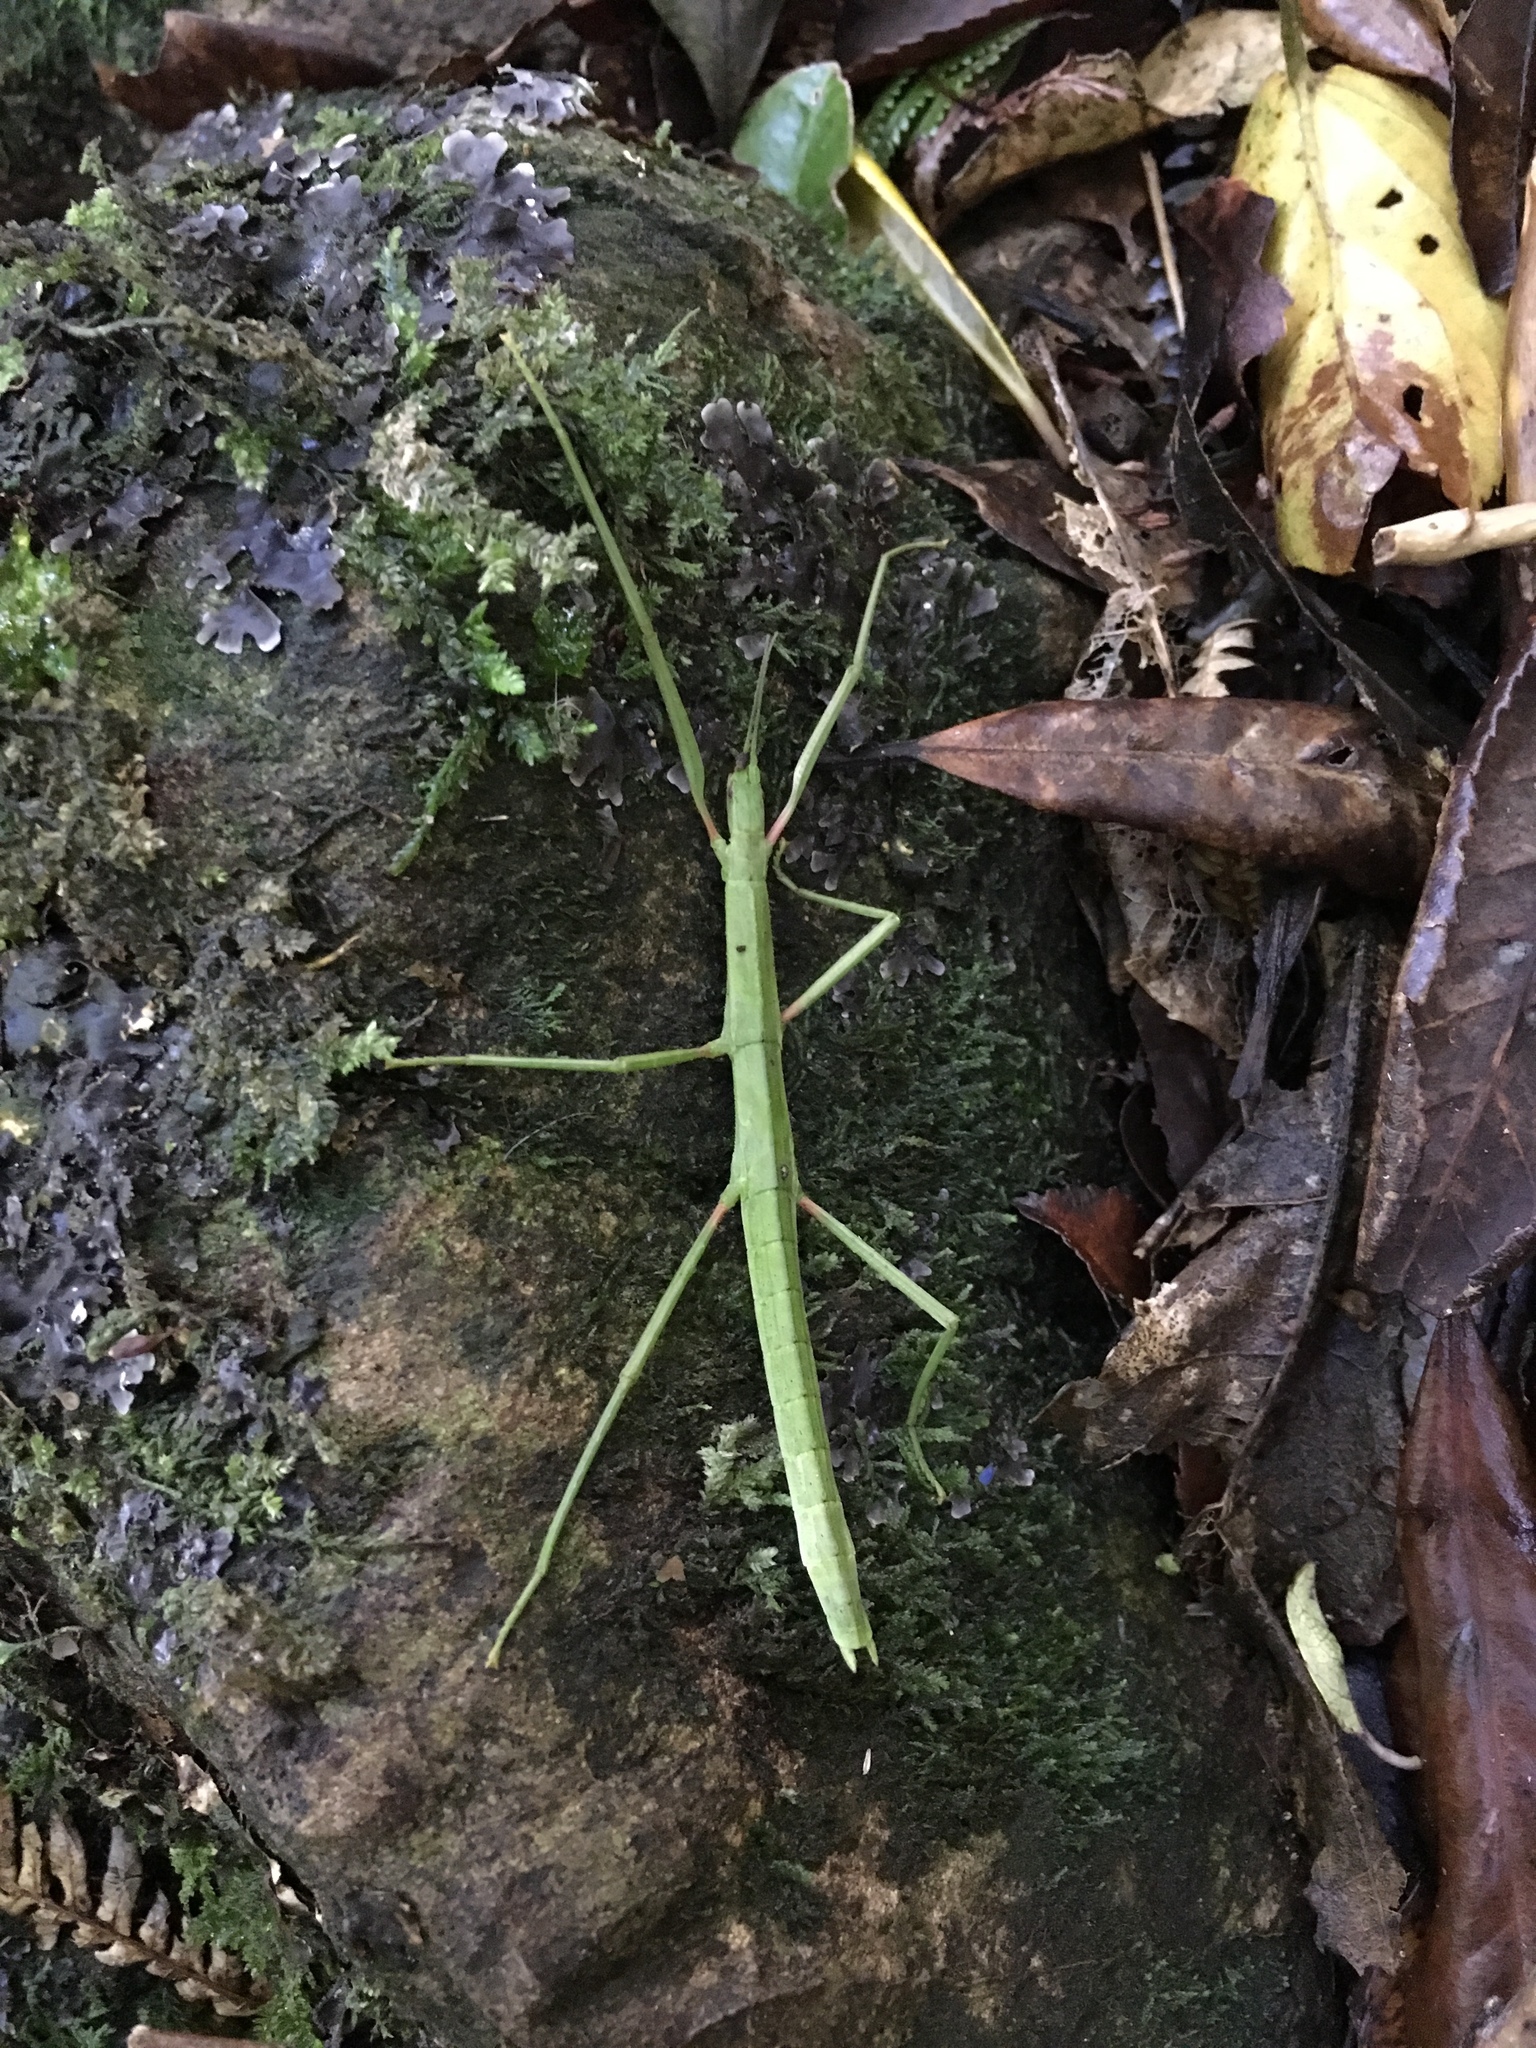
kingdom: Animalia
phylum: Arthropoda
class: Insecta
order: Phasmida
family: Phasmatidae
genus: Tectarchus
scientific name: Tectarchus huttoni
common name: The common ridge-backed stick insect
